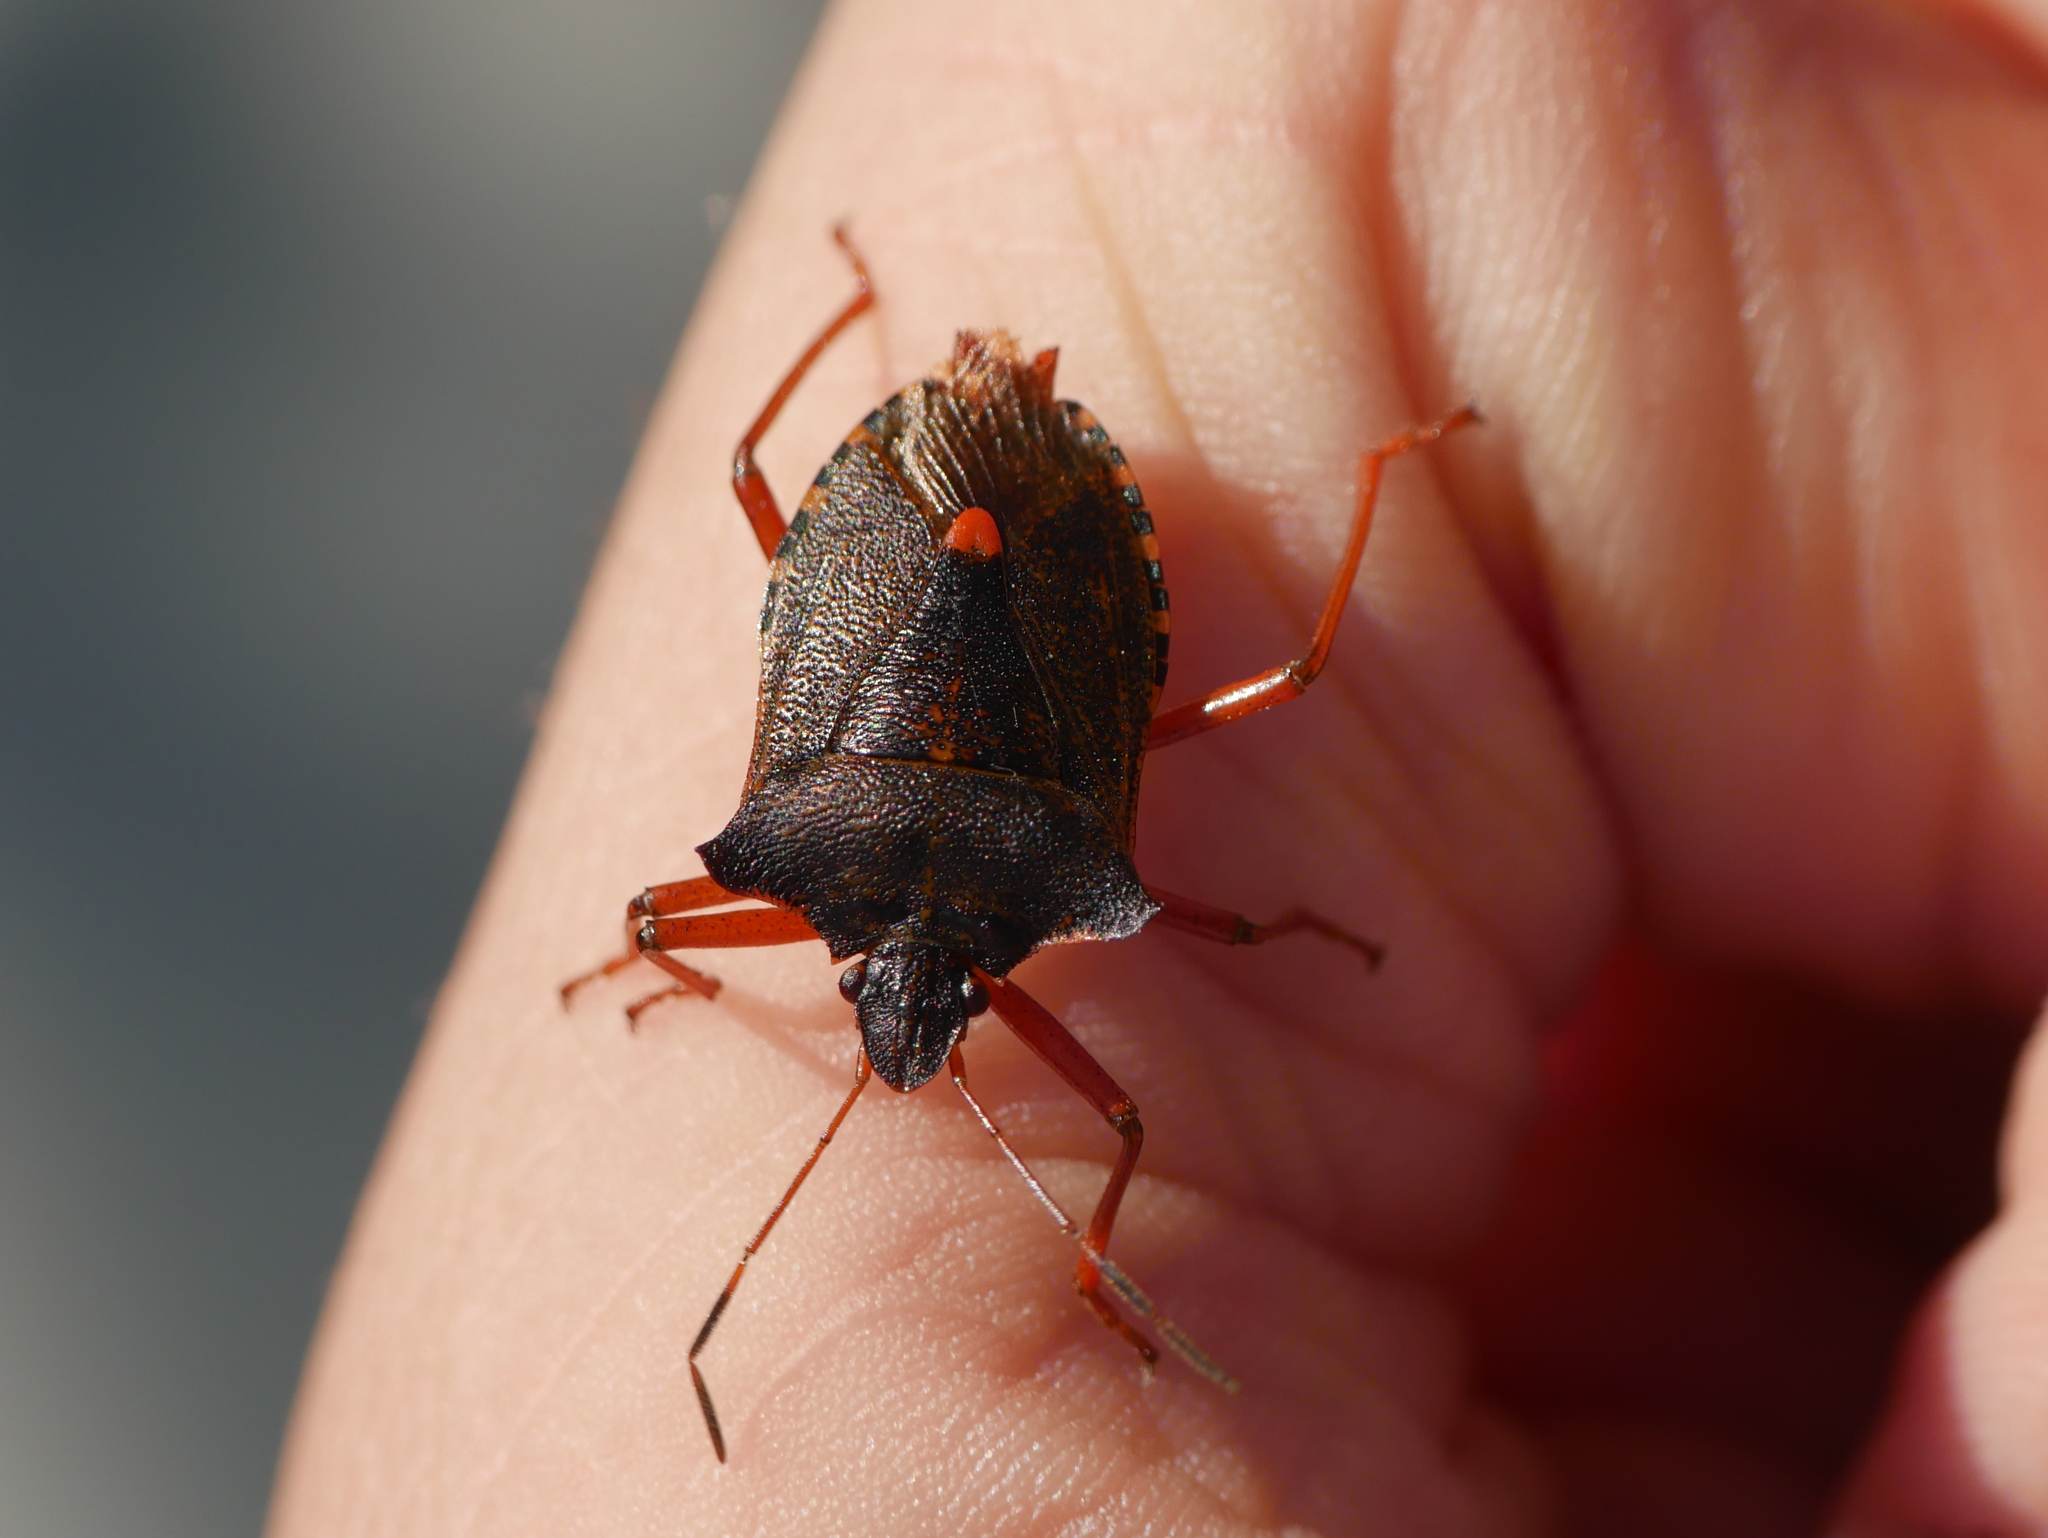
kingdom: Animalia
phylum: Arthropoda
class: Insecta
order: Hemiptera
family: Pentatomidae
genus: Pentatoma
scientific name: Pentatoma rufipes
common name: Forest bug
